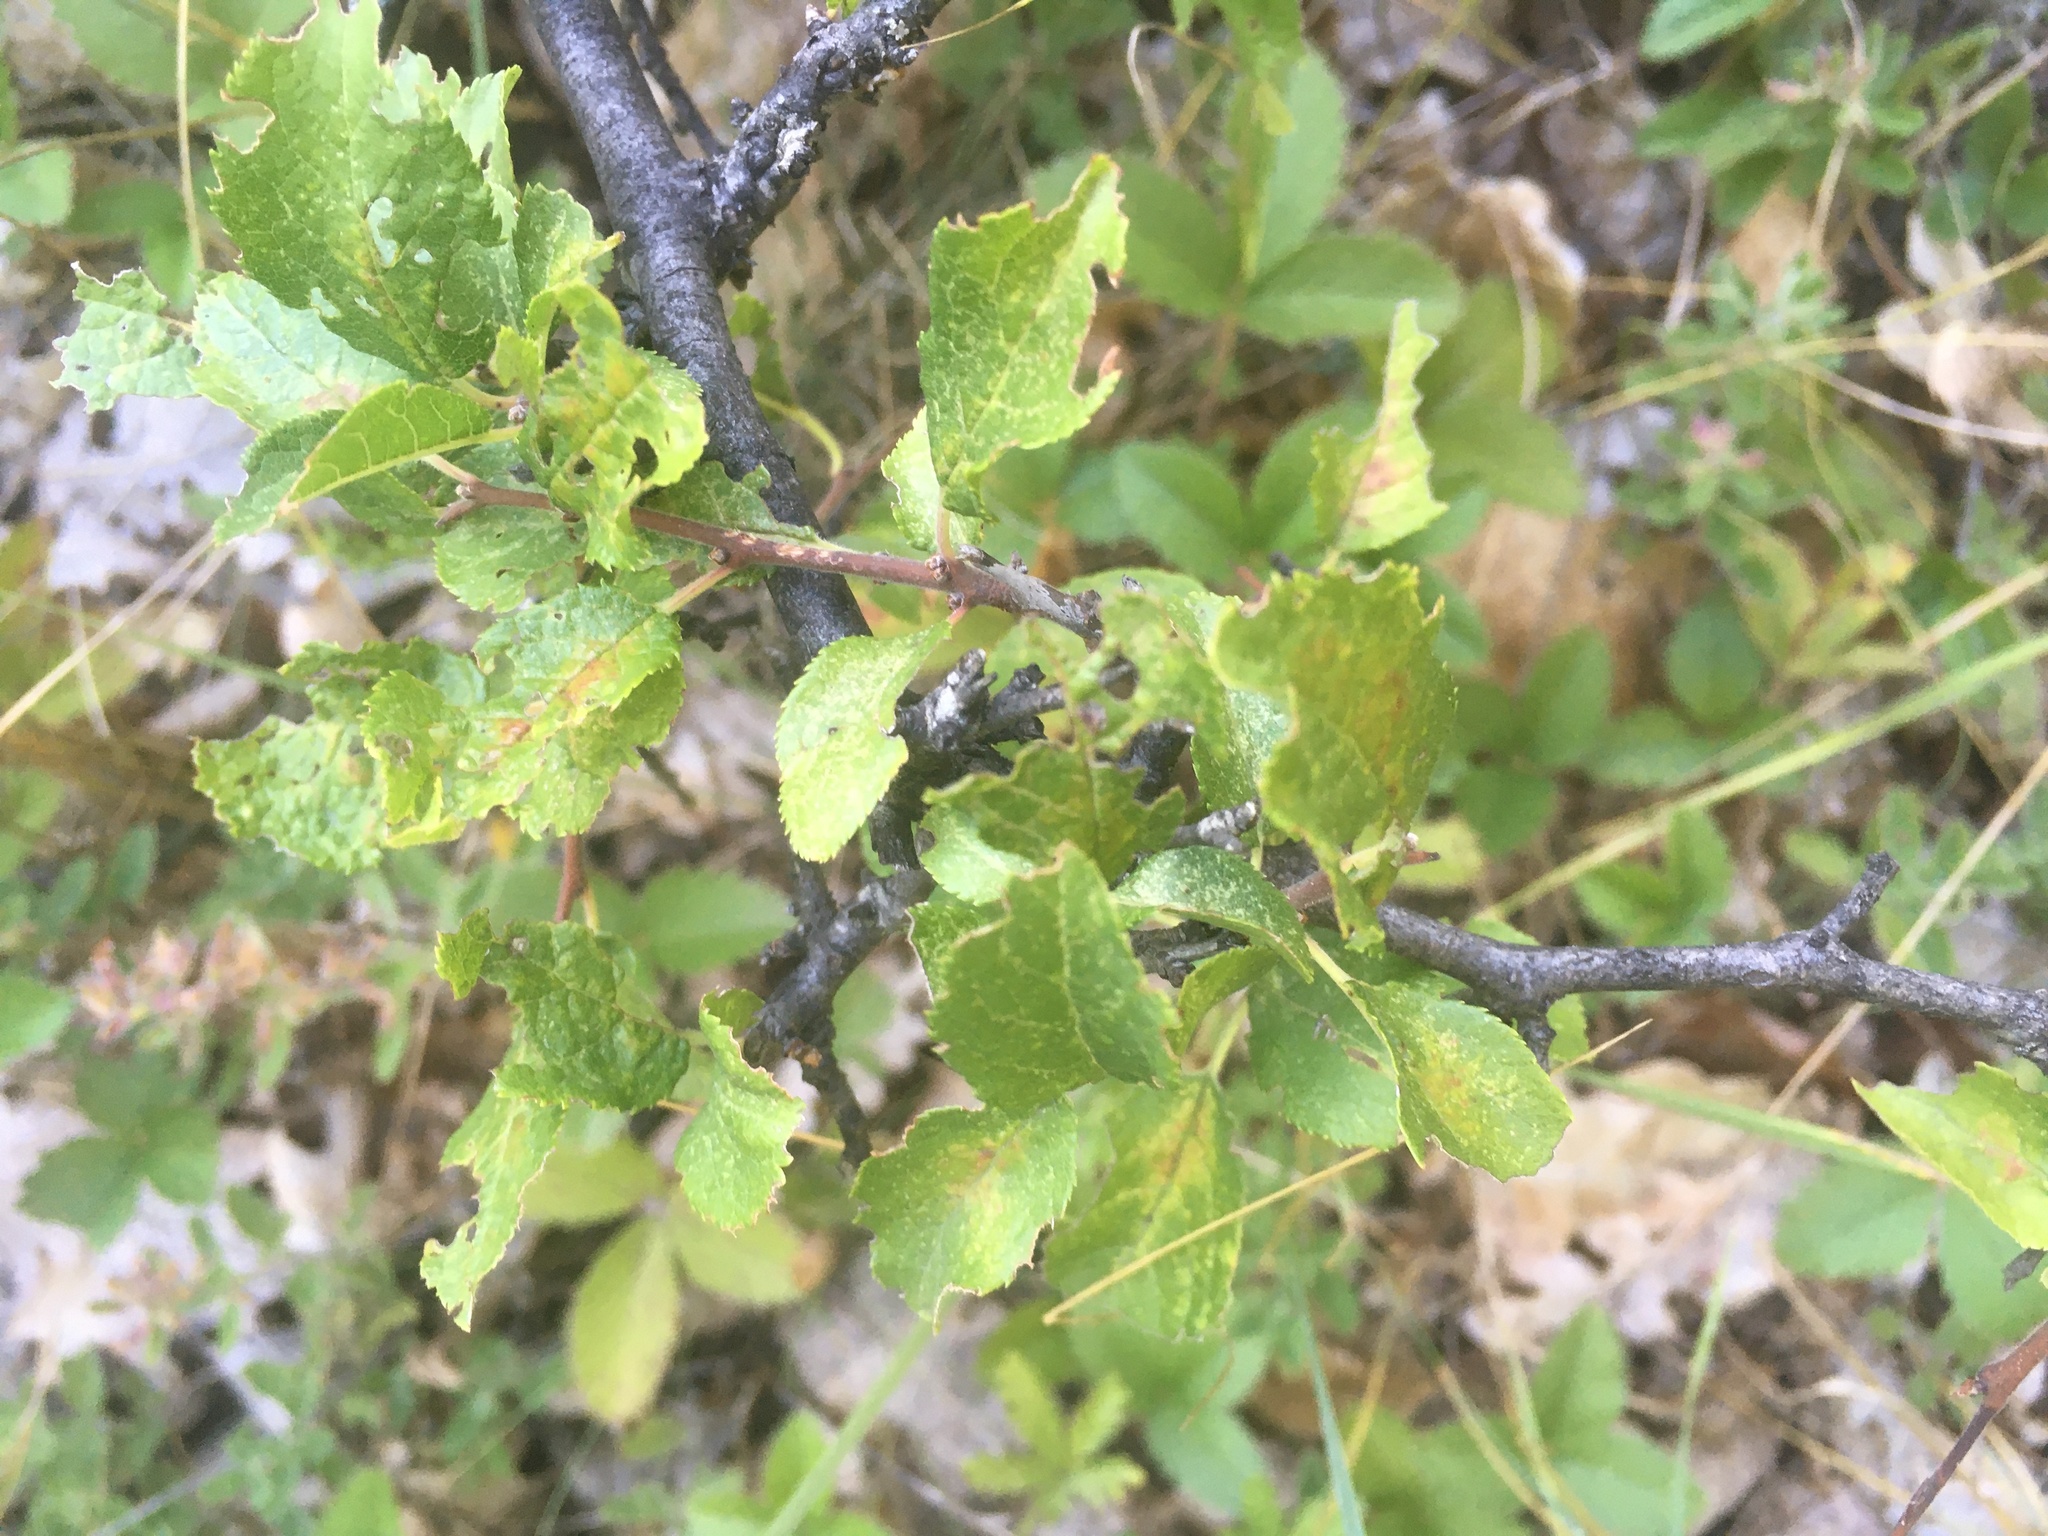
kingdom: Plantae
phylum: Tracheophyta
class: Magnoliopsida
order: Rosales
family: Rosaceae
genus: Prunus
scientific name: Prunus spinosa
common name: Blackthorn
